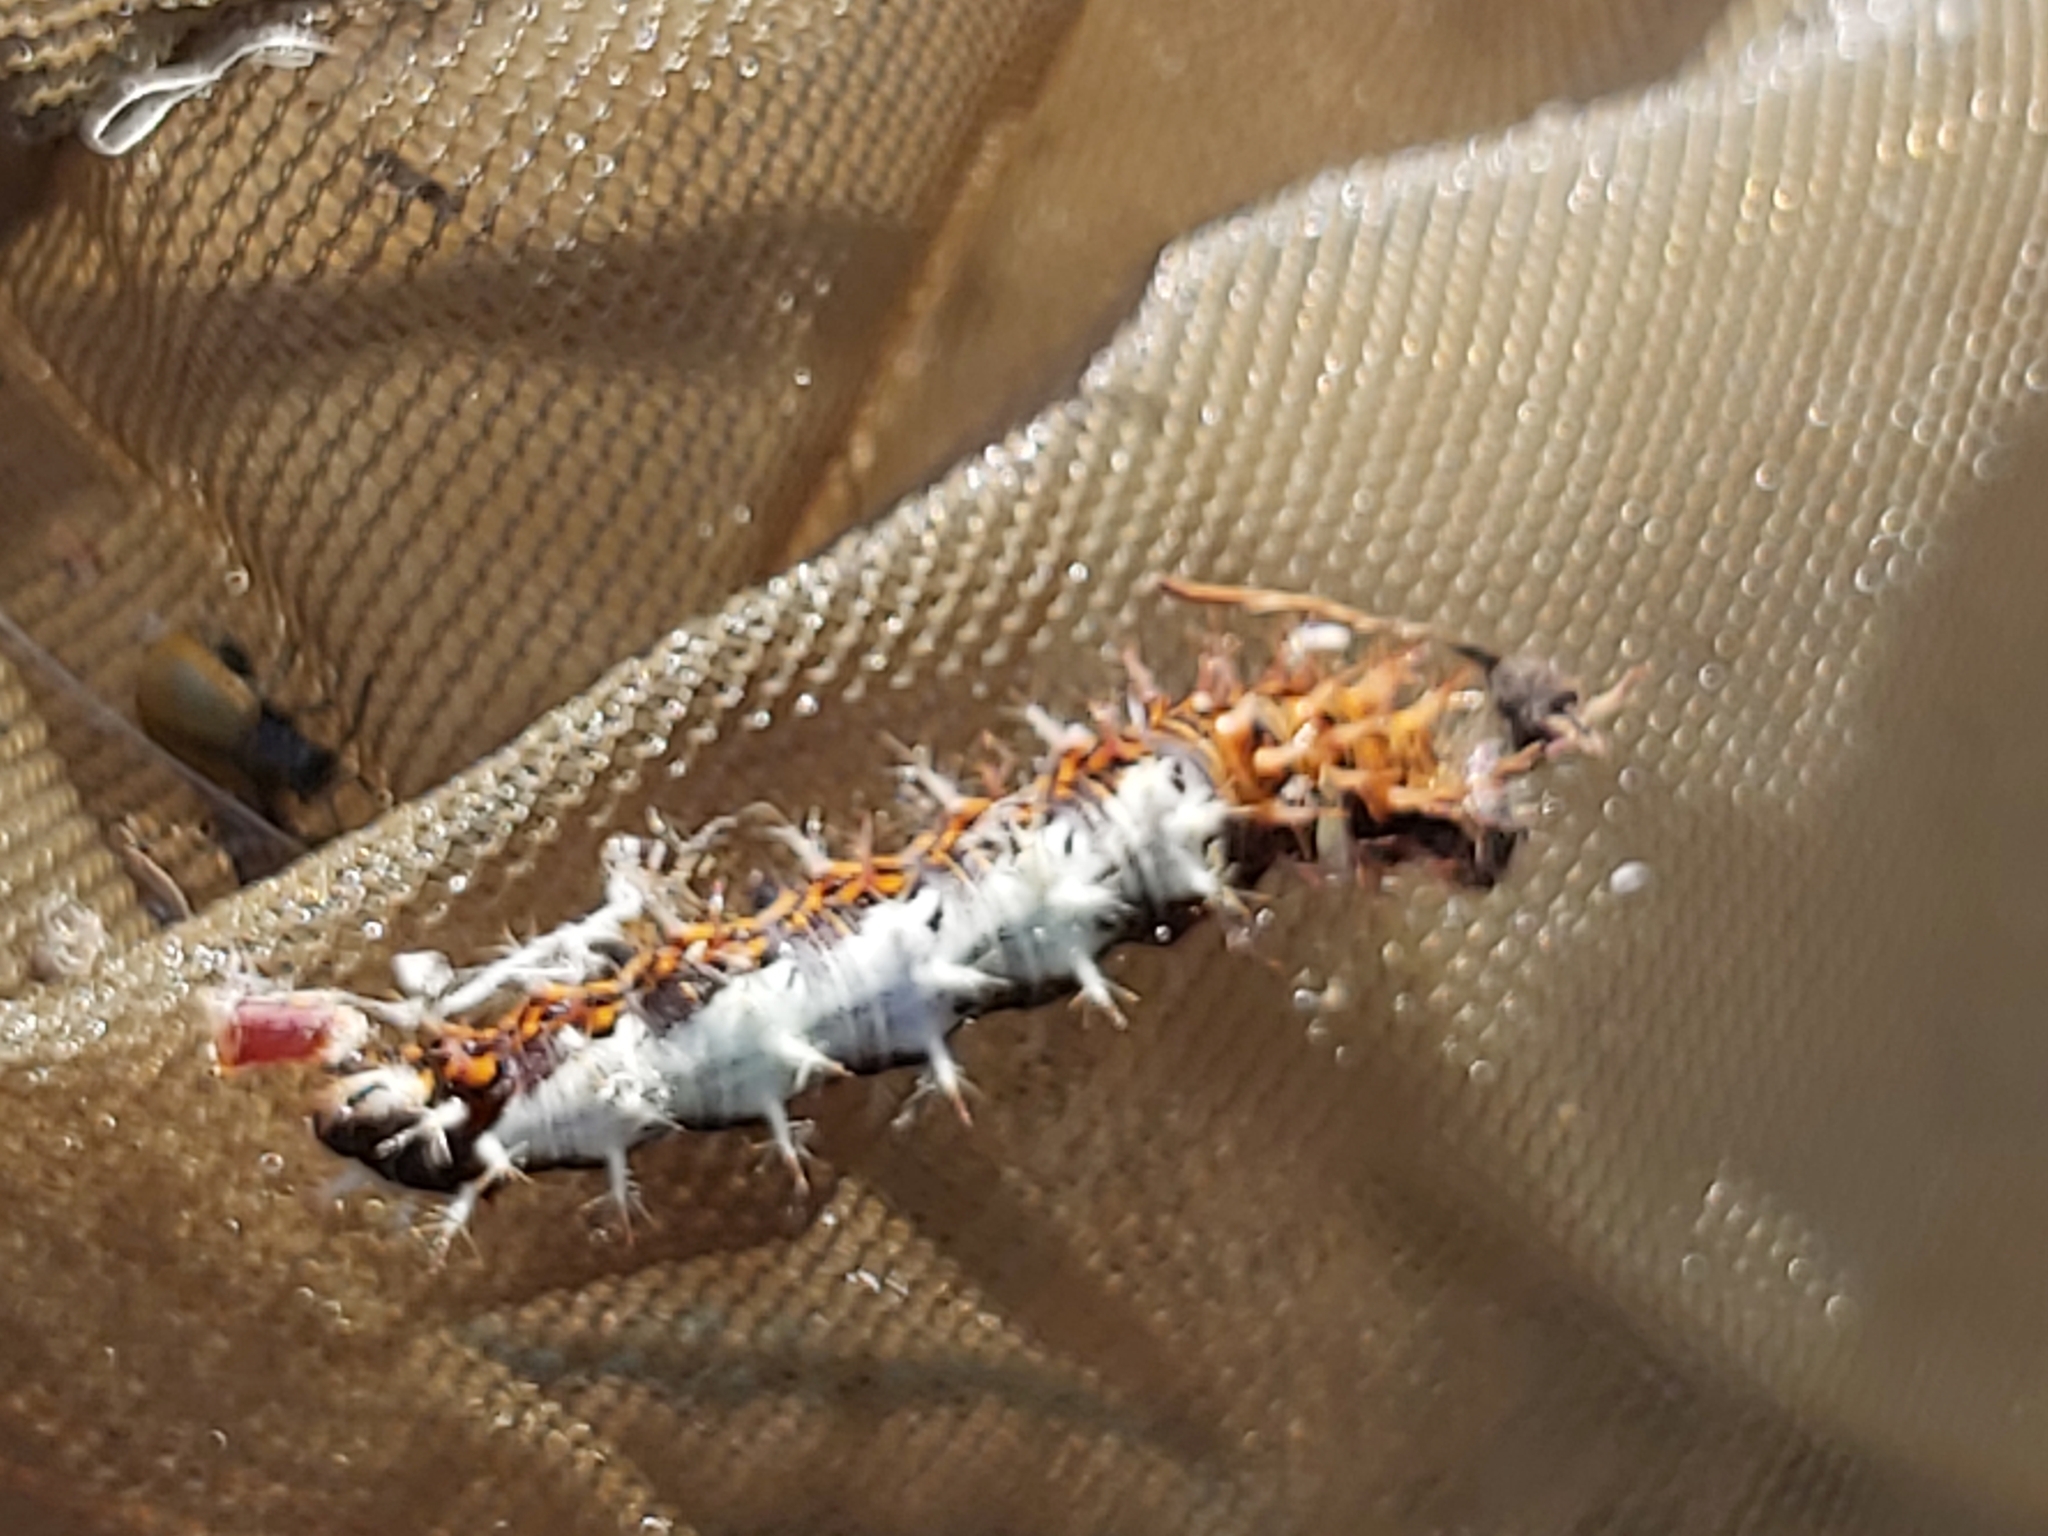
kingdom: Animalia
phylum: Arthropoda
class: Insecta
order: Lepidoptera
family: Nymphalidae
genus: Polygonia
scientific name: Polygonia c-album
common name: Comma
